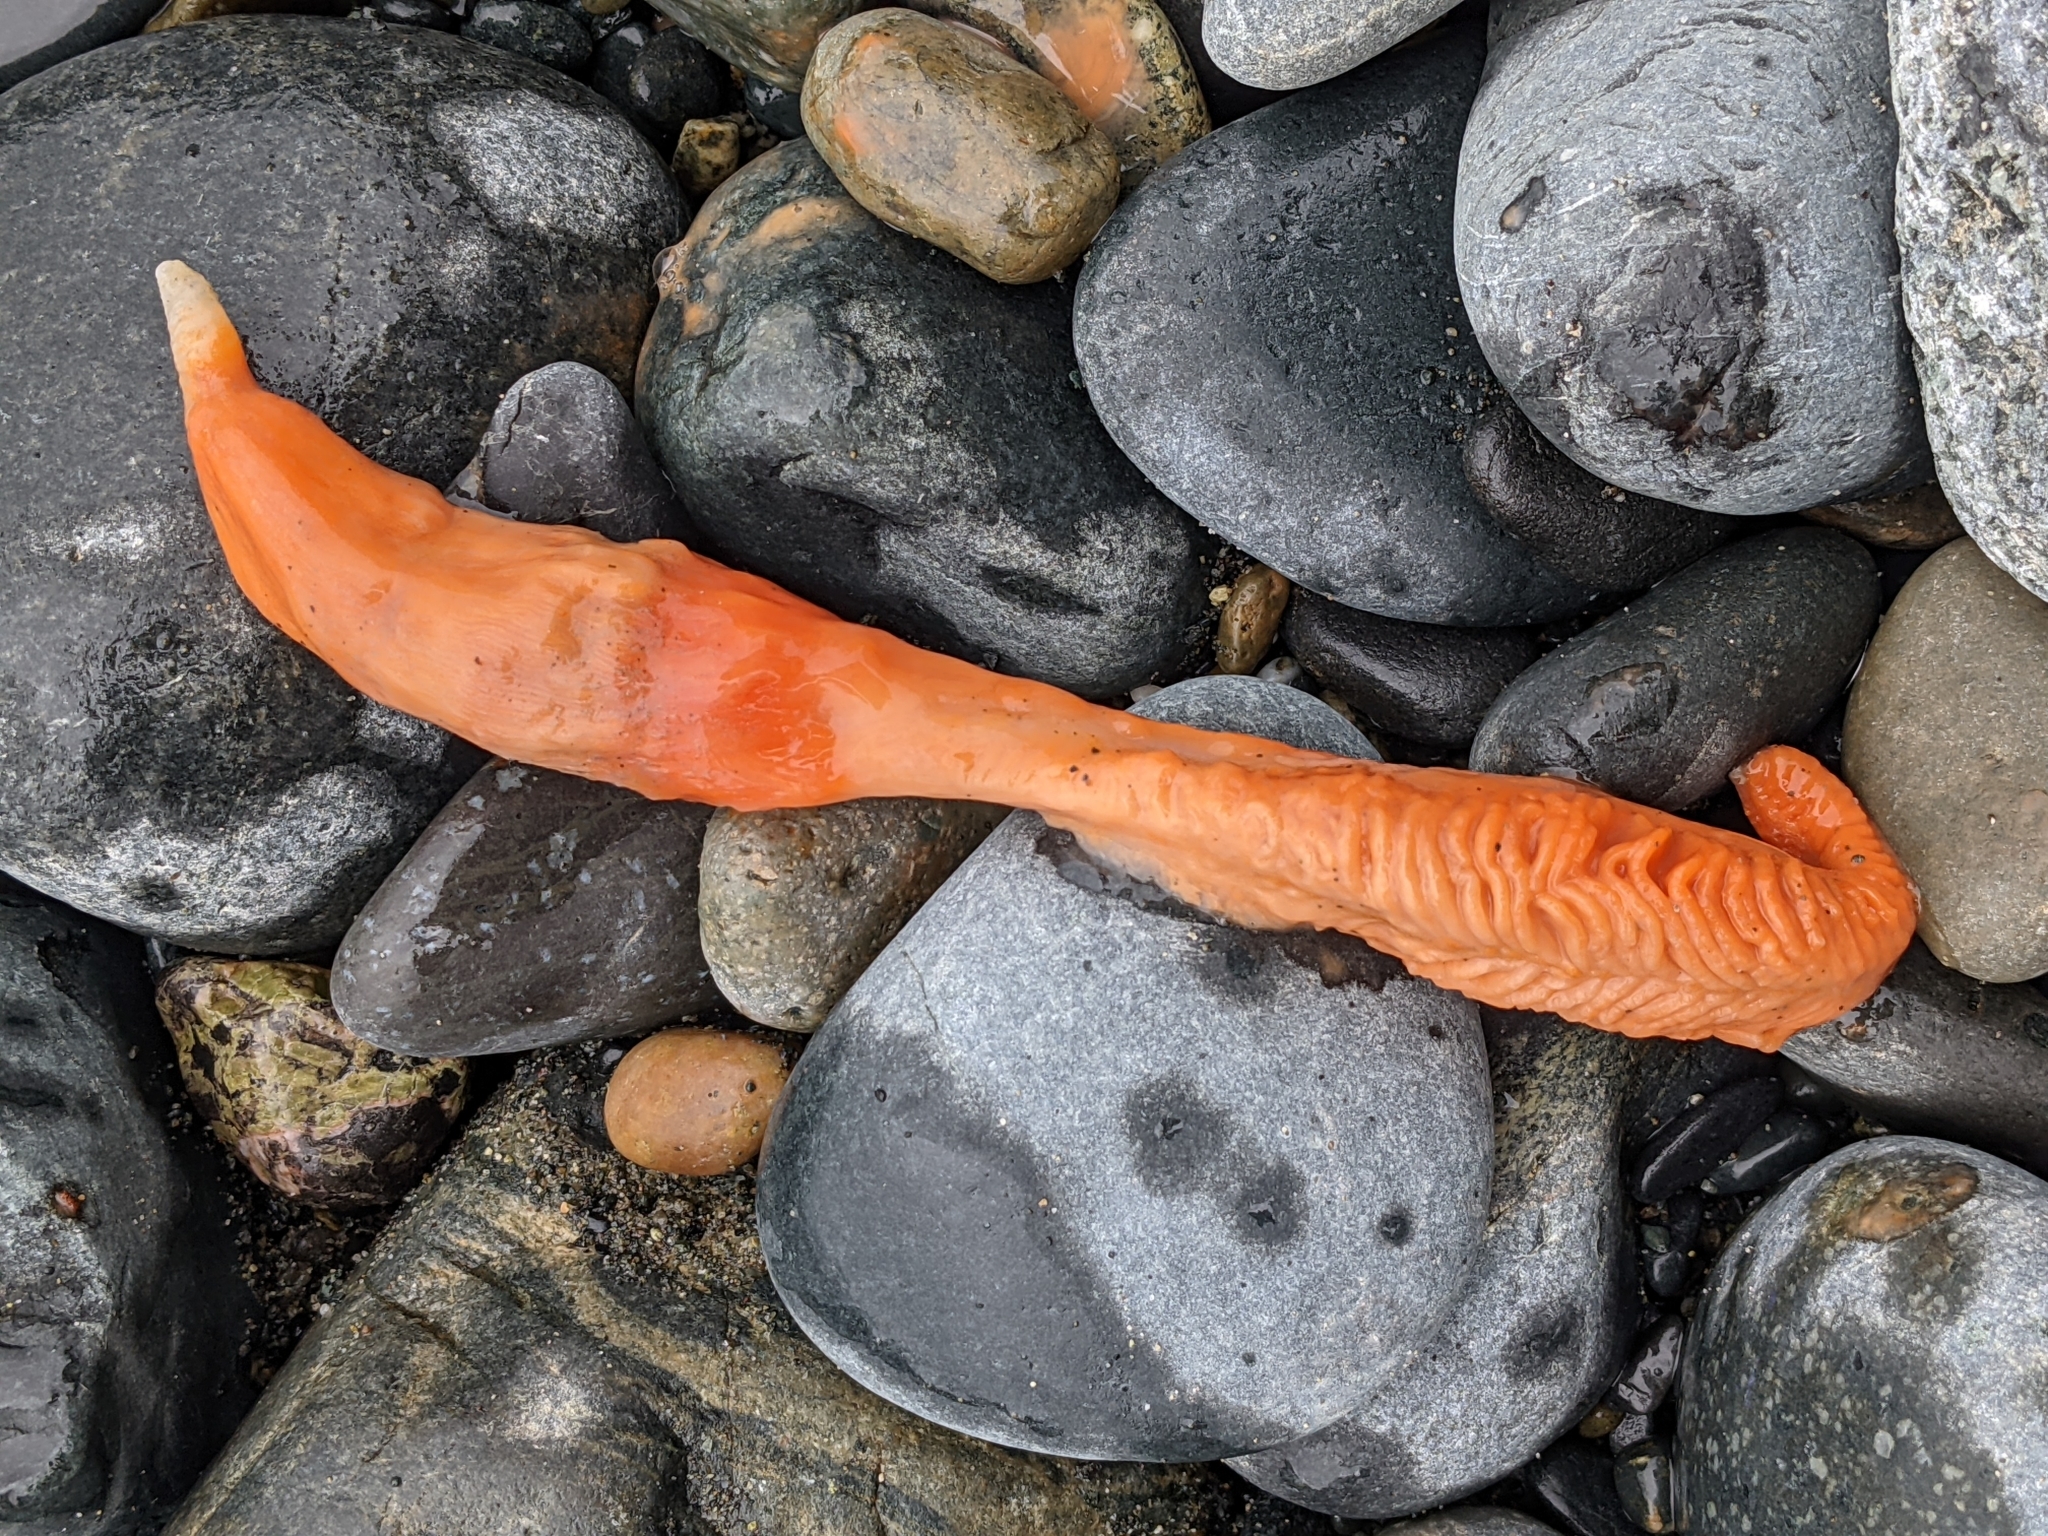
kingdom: Animalia
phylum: Cnidaria
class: Anthozoa
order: Scleralcyonacea
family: Pennatulidae
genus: Ptilosarcus
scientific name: Ptilosarcus gurneyi
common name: Gurney's sea pen
